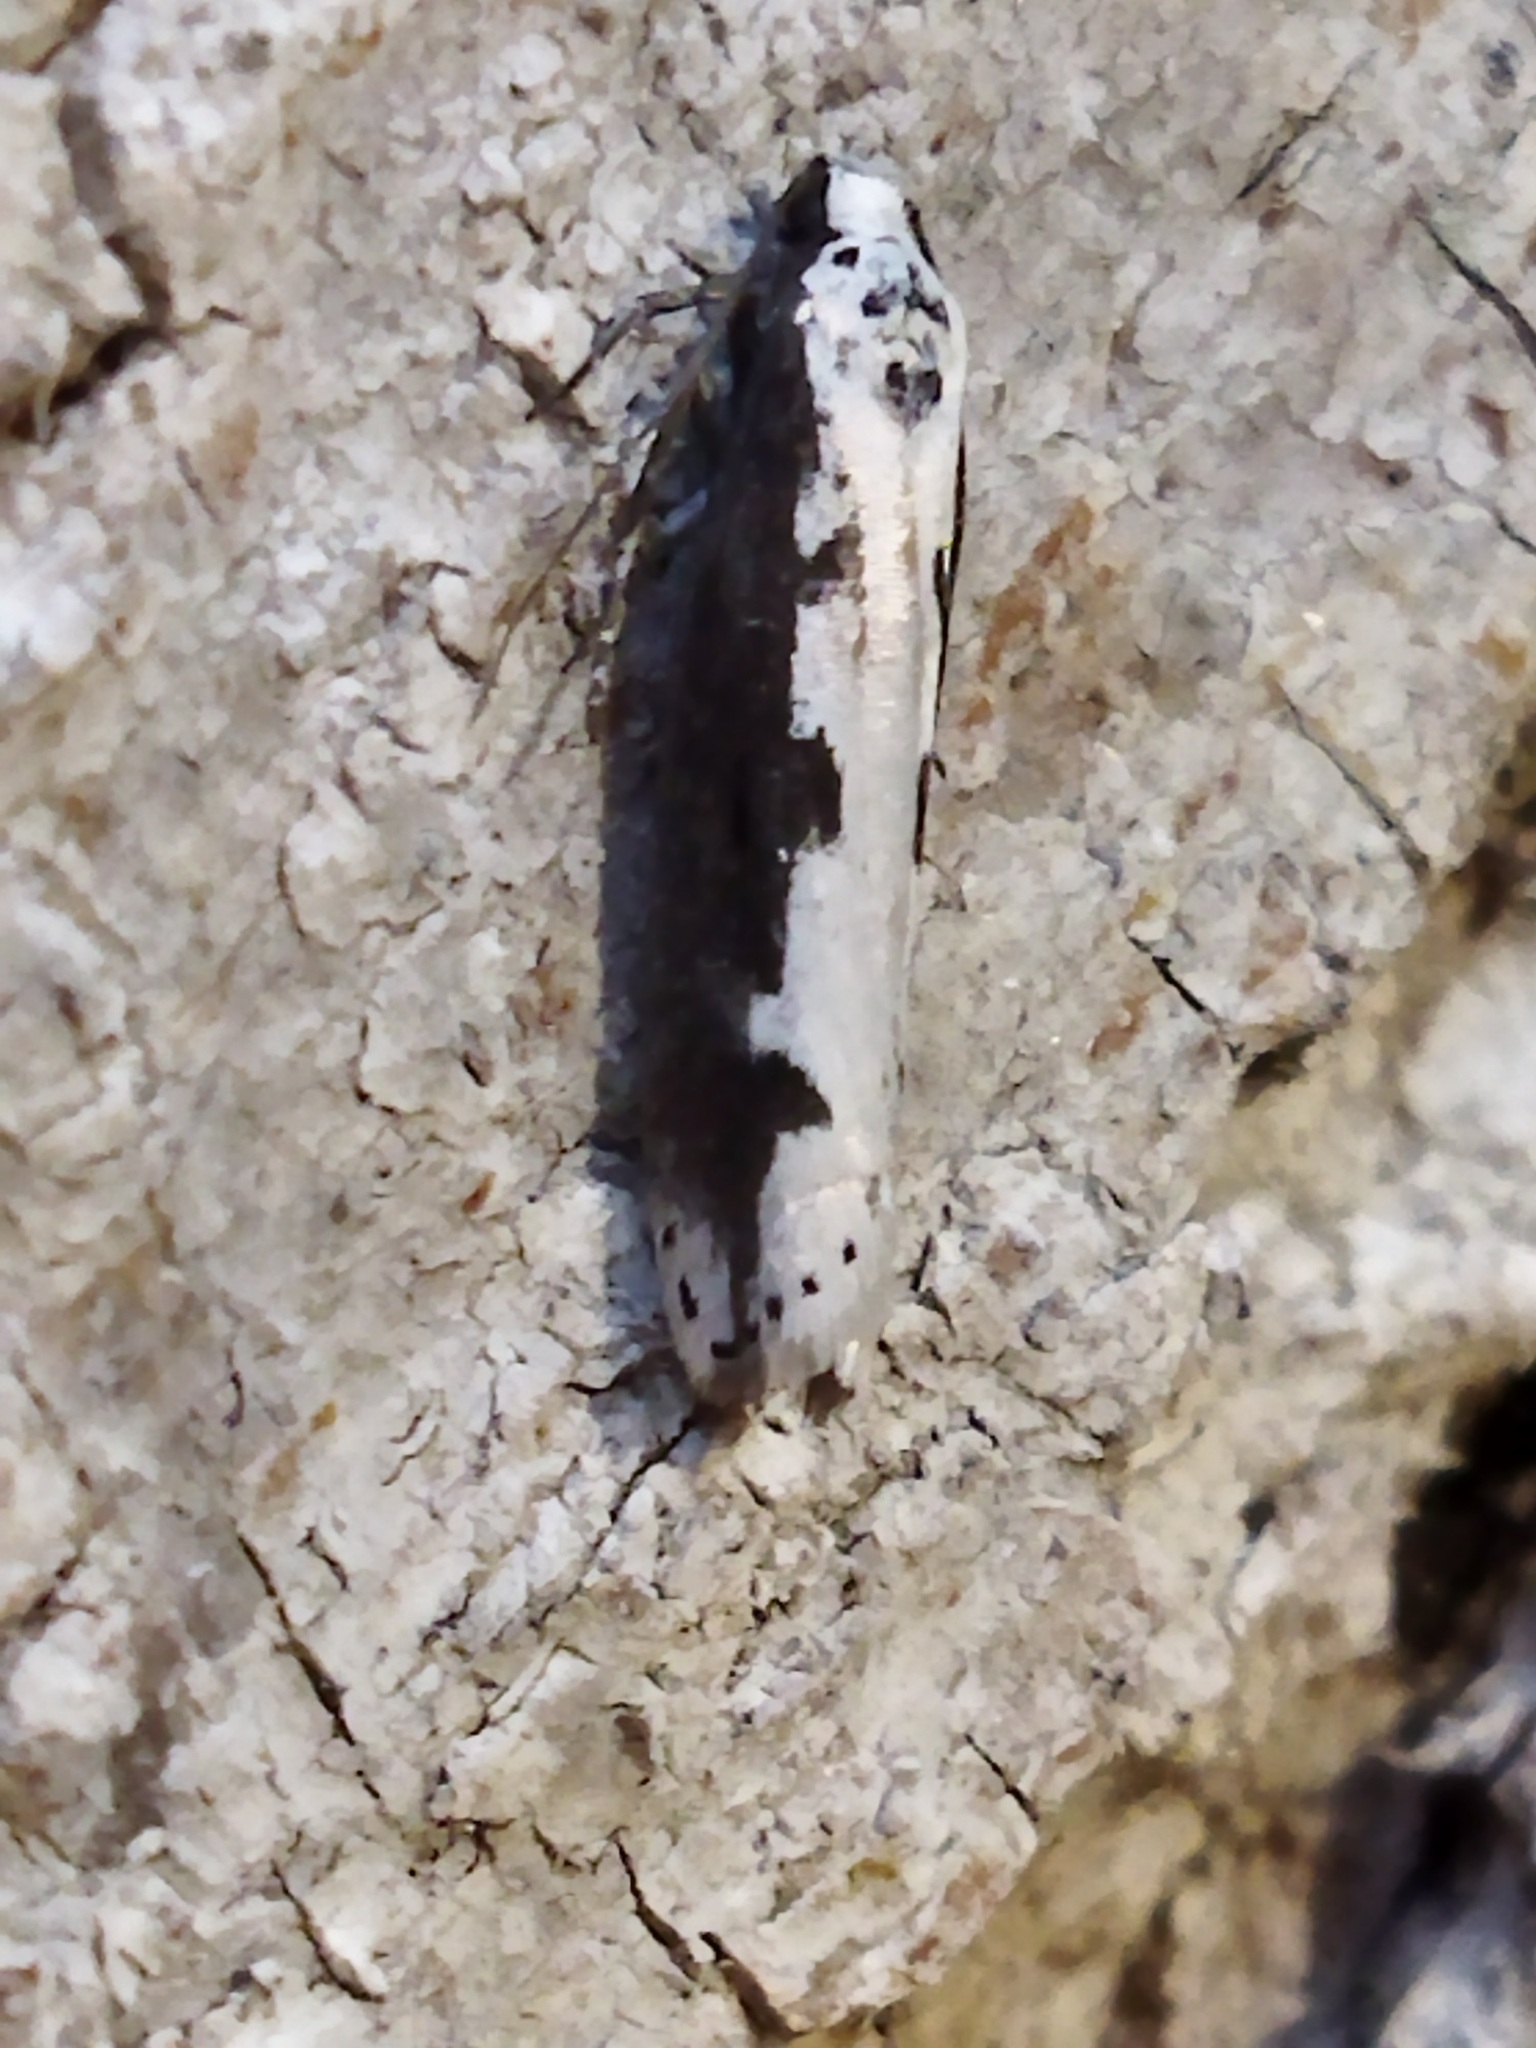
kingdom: Animalia
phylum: Arthropoda
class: Insecta
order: Lepidoptera
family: Ethmiidae
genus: Ethmia
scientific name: Ethmia bipunctella
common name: Bordered ermel
